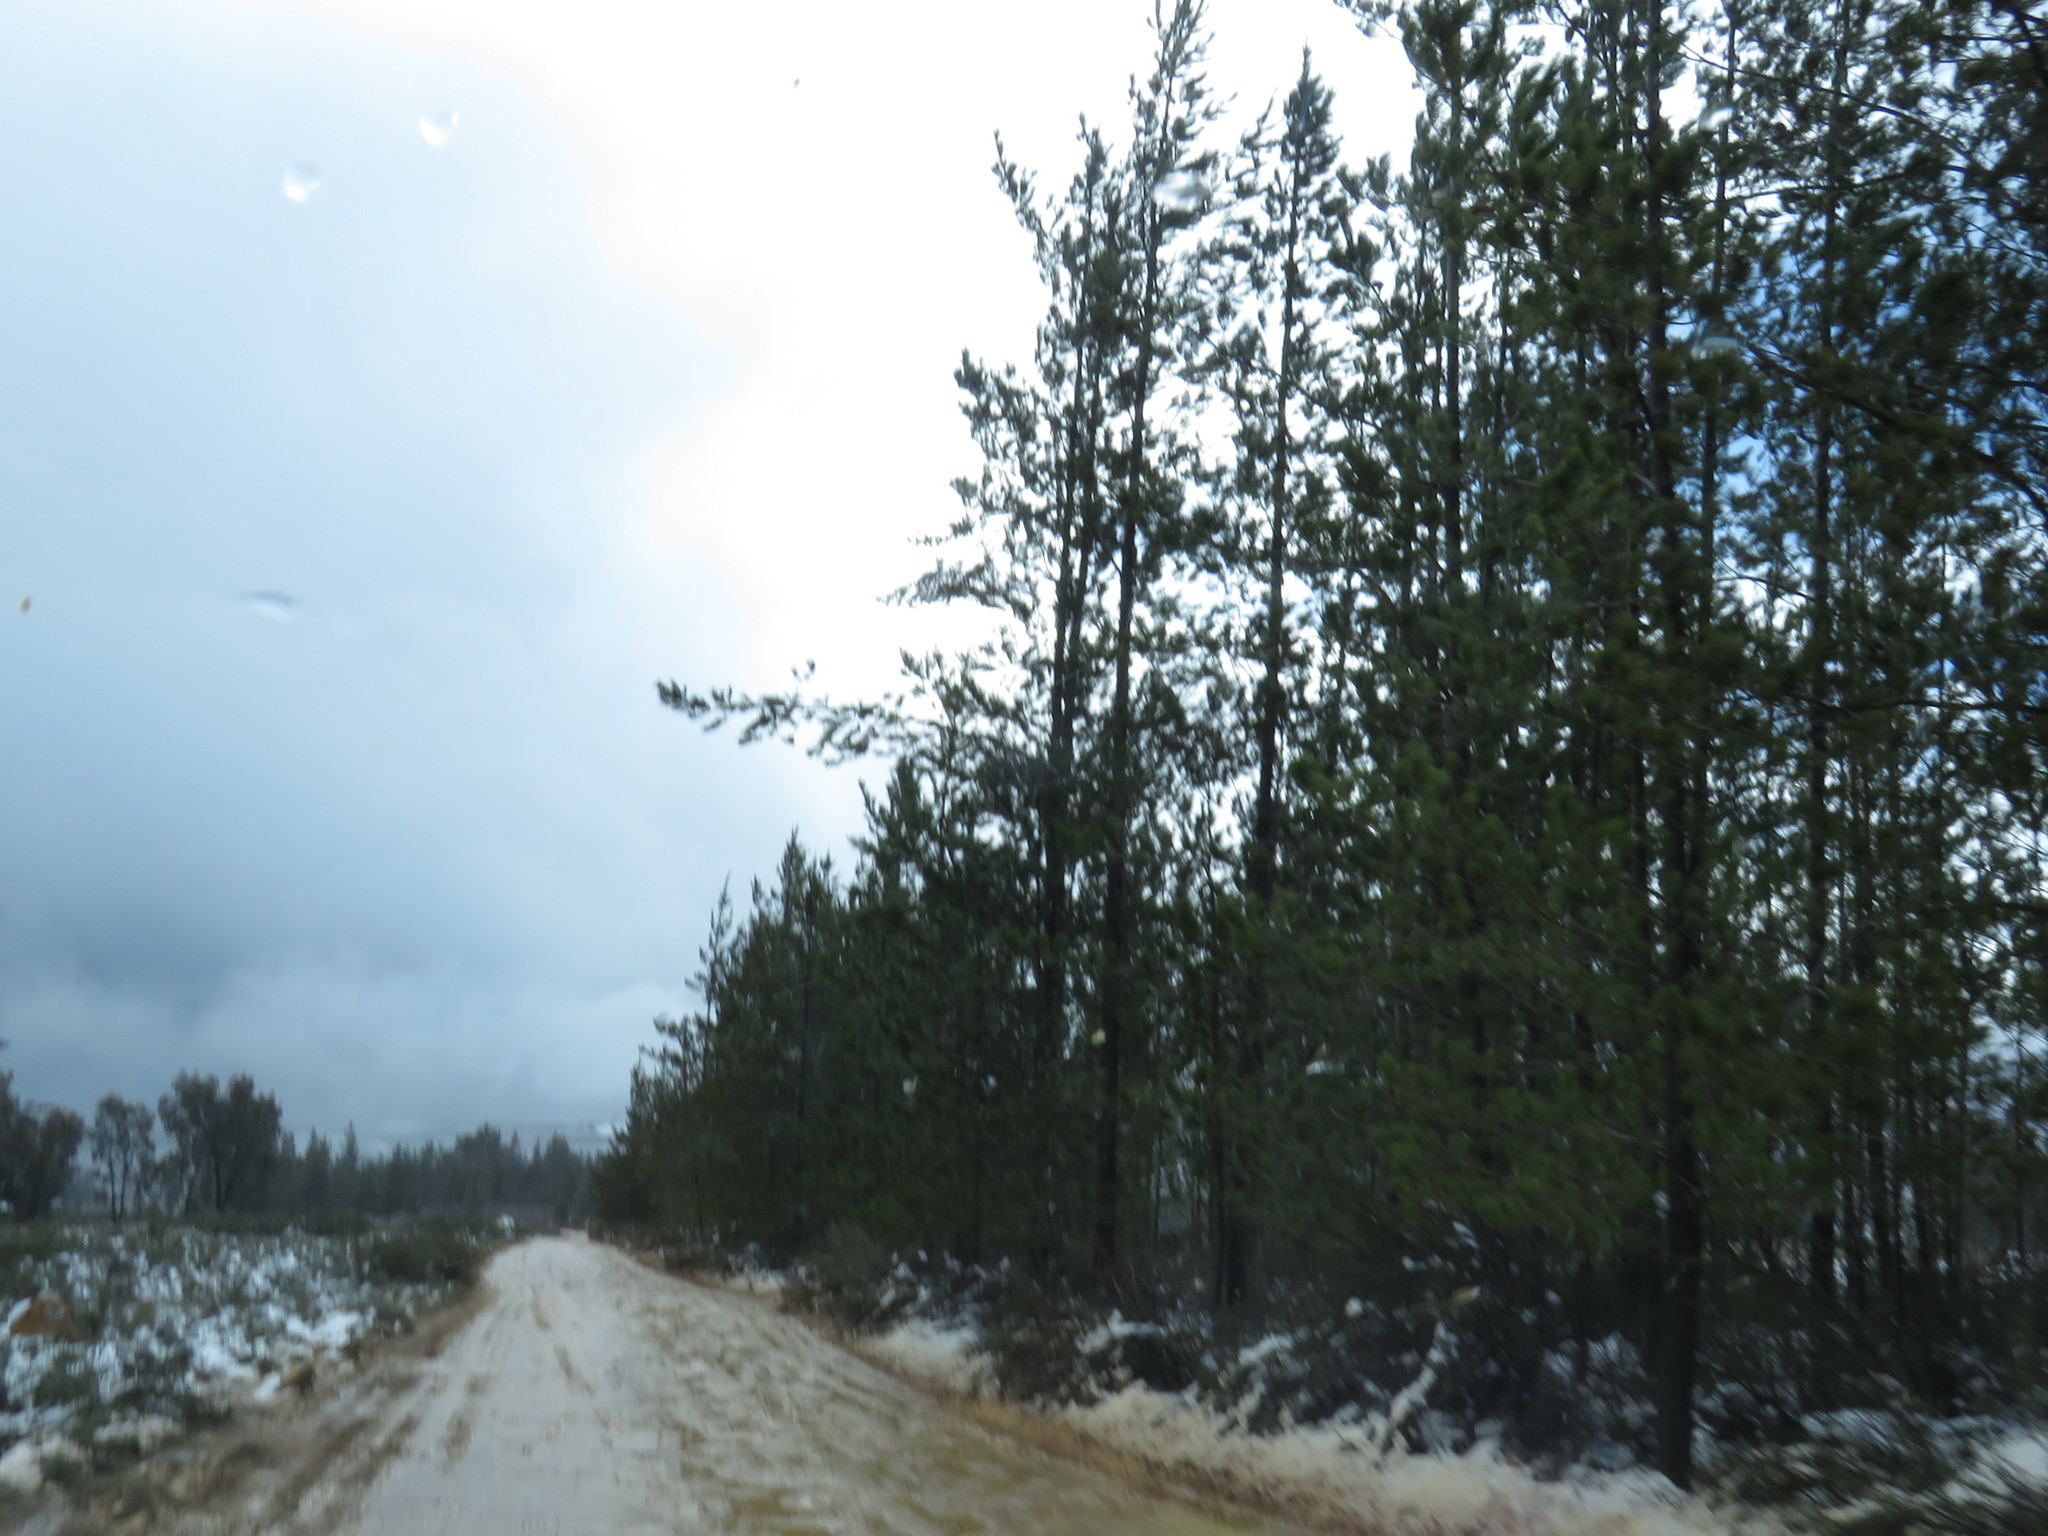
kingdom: Plantae
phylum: Tracheophyta
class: Pinopsida
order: Pinales
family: Pinaceae
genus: Pinus
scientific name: Pinus halepensis
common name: Aleppo pine
